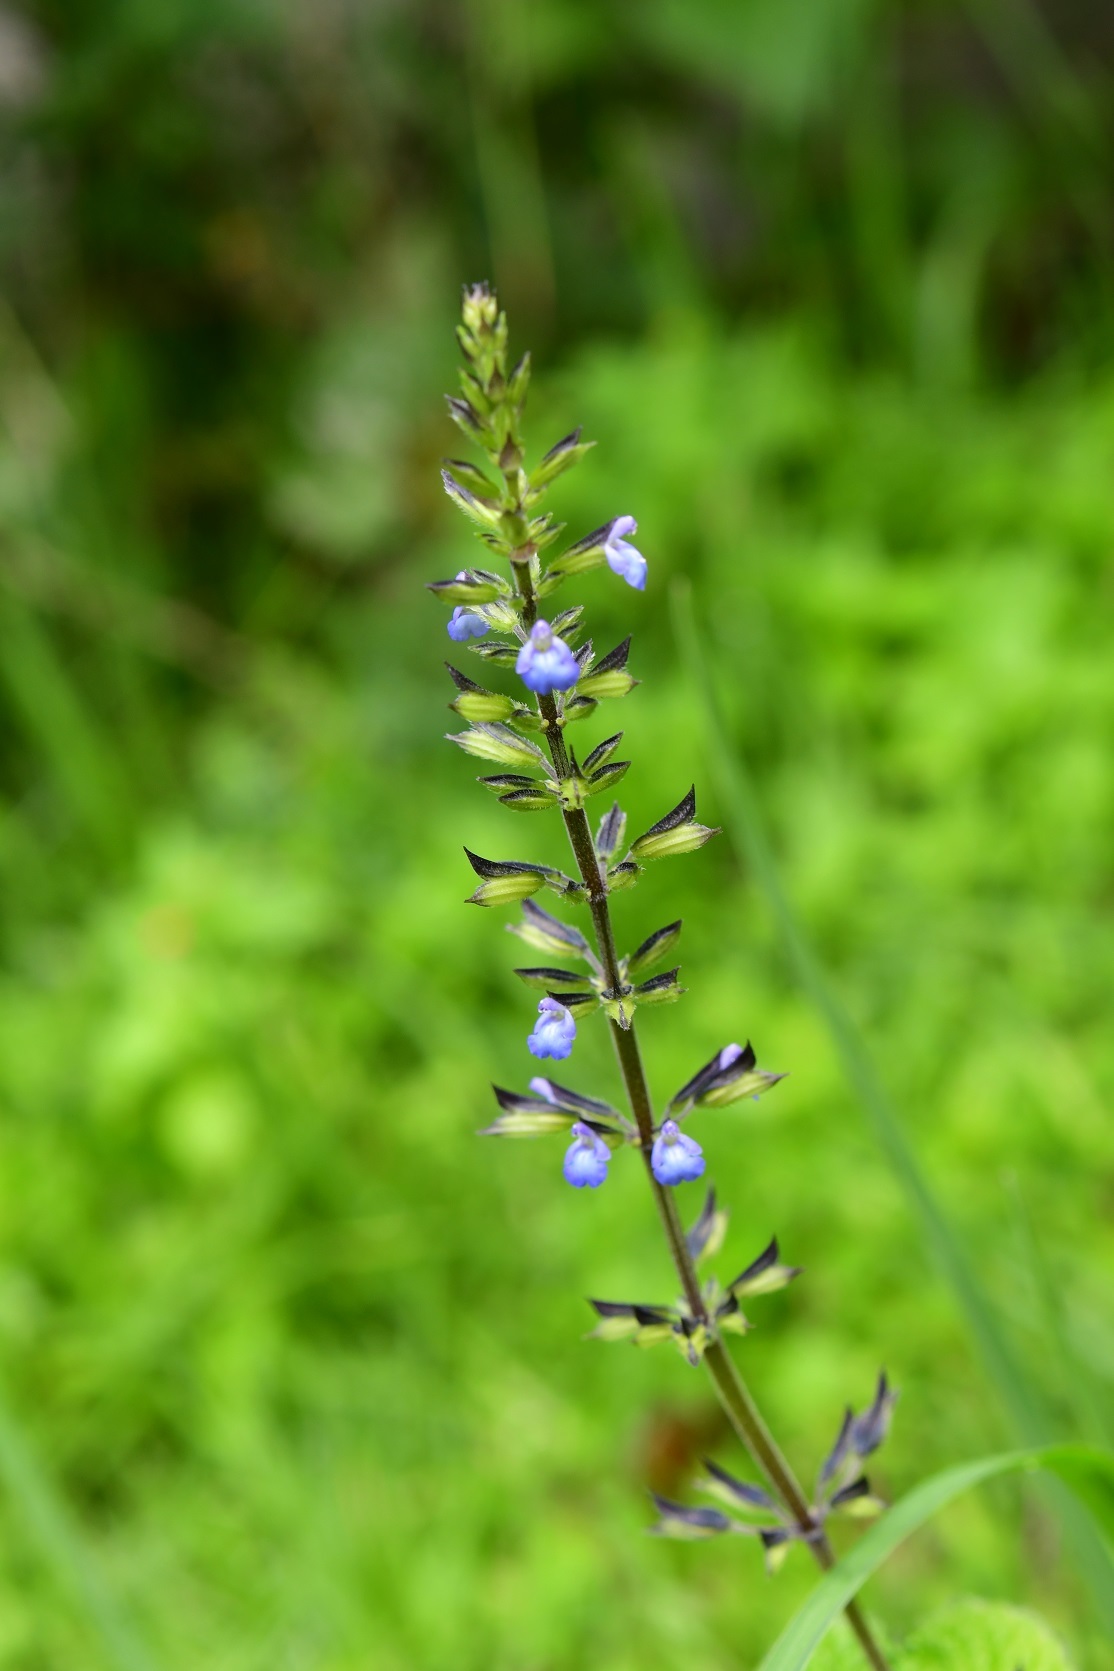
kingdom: Plantae
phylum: Tracheophyta
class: Magnoliopsida
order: Lamiales
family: Lamiaceae
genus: Salvia
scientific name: Salvia tiliifolia
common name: Lindenleaf sage
